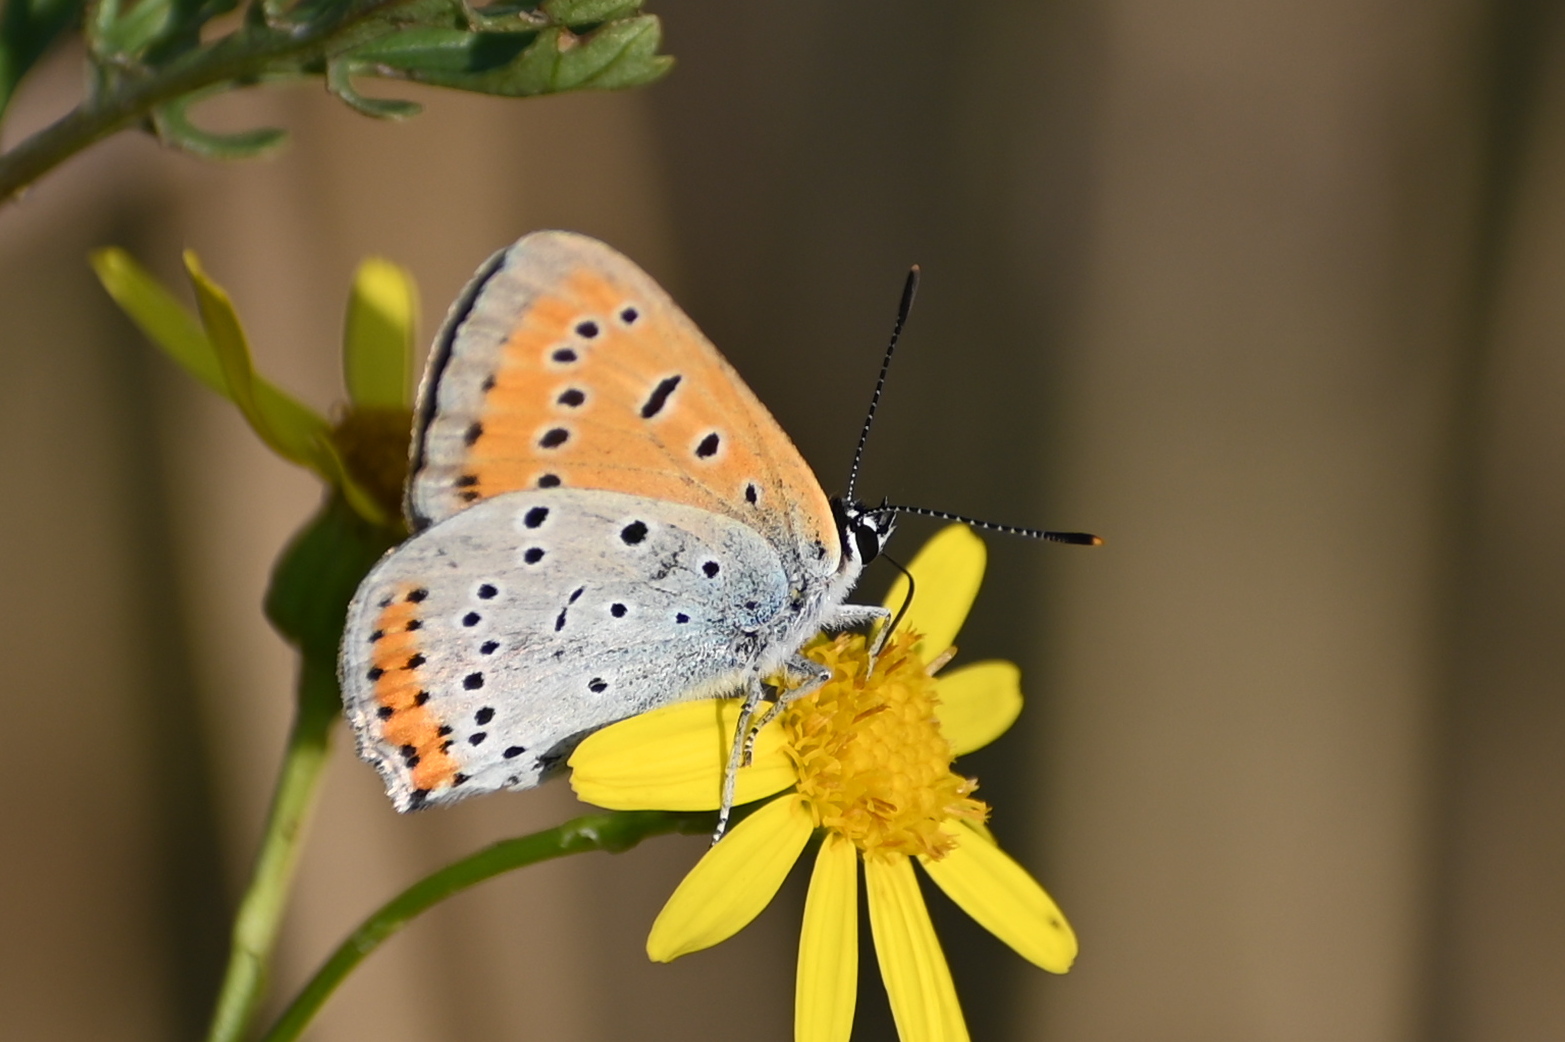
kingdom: Animalia
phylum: Arthropoda
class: Insecta
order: Lepidoptera
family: Lycaenidae
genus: Lycaena
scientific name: Lycaena dispar
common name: Large copper
